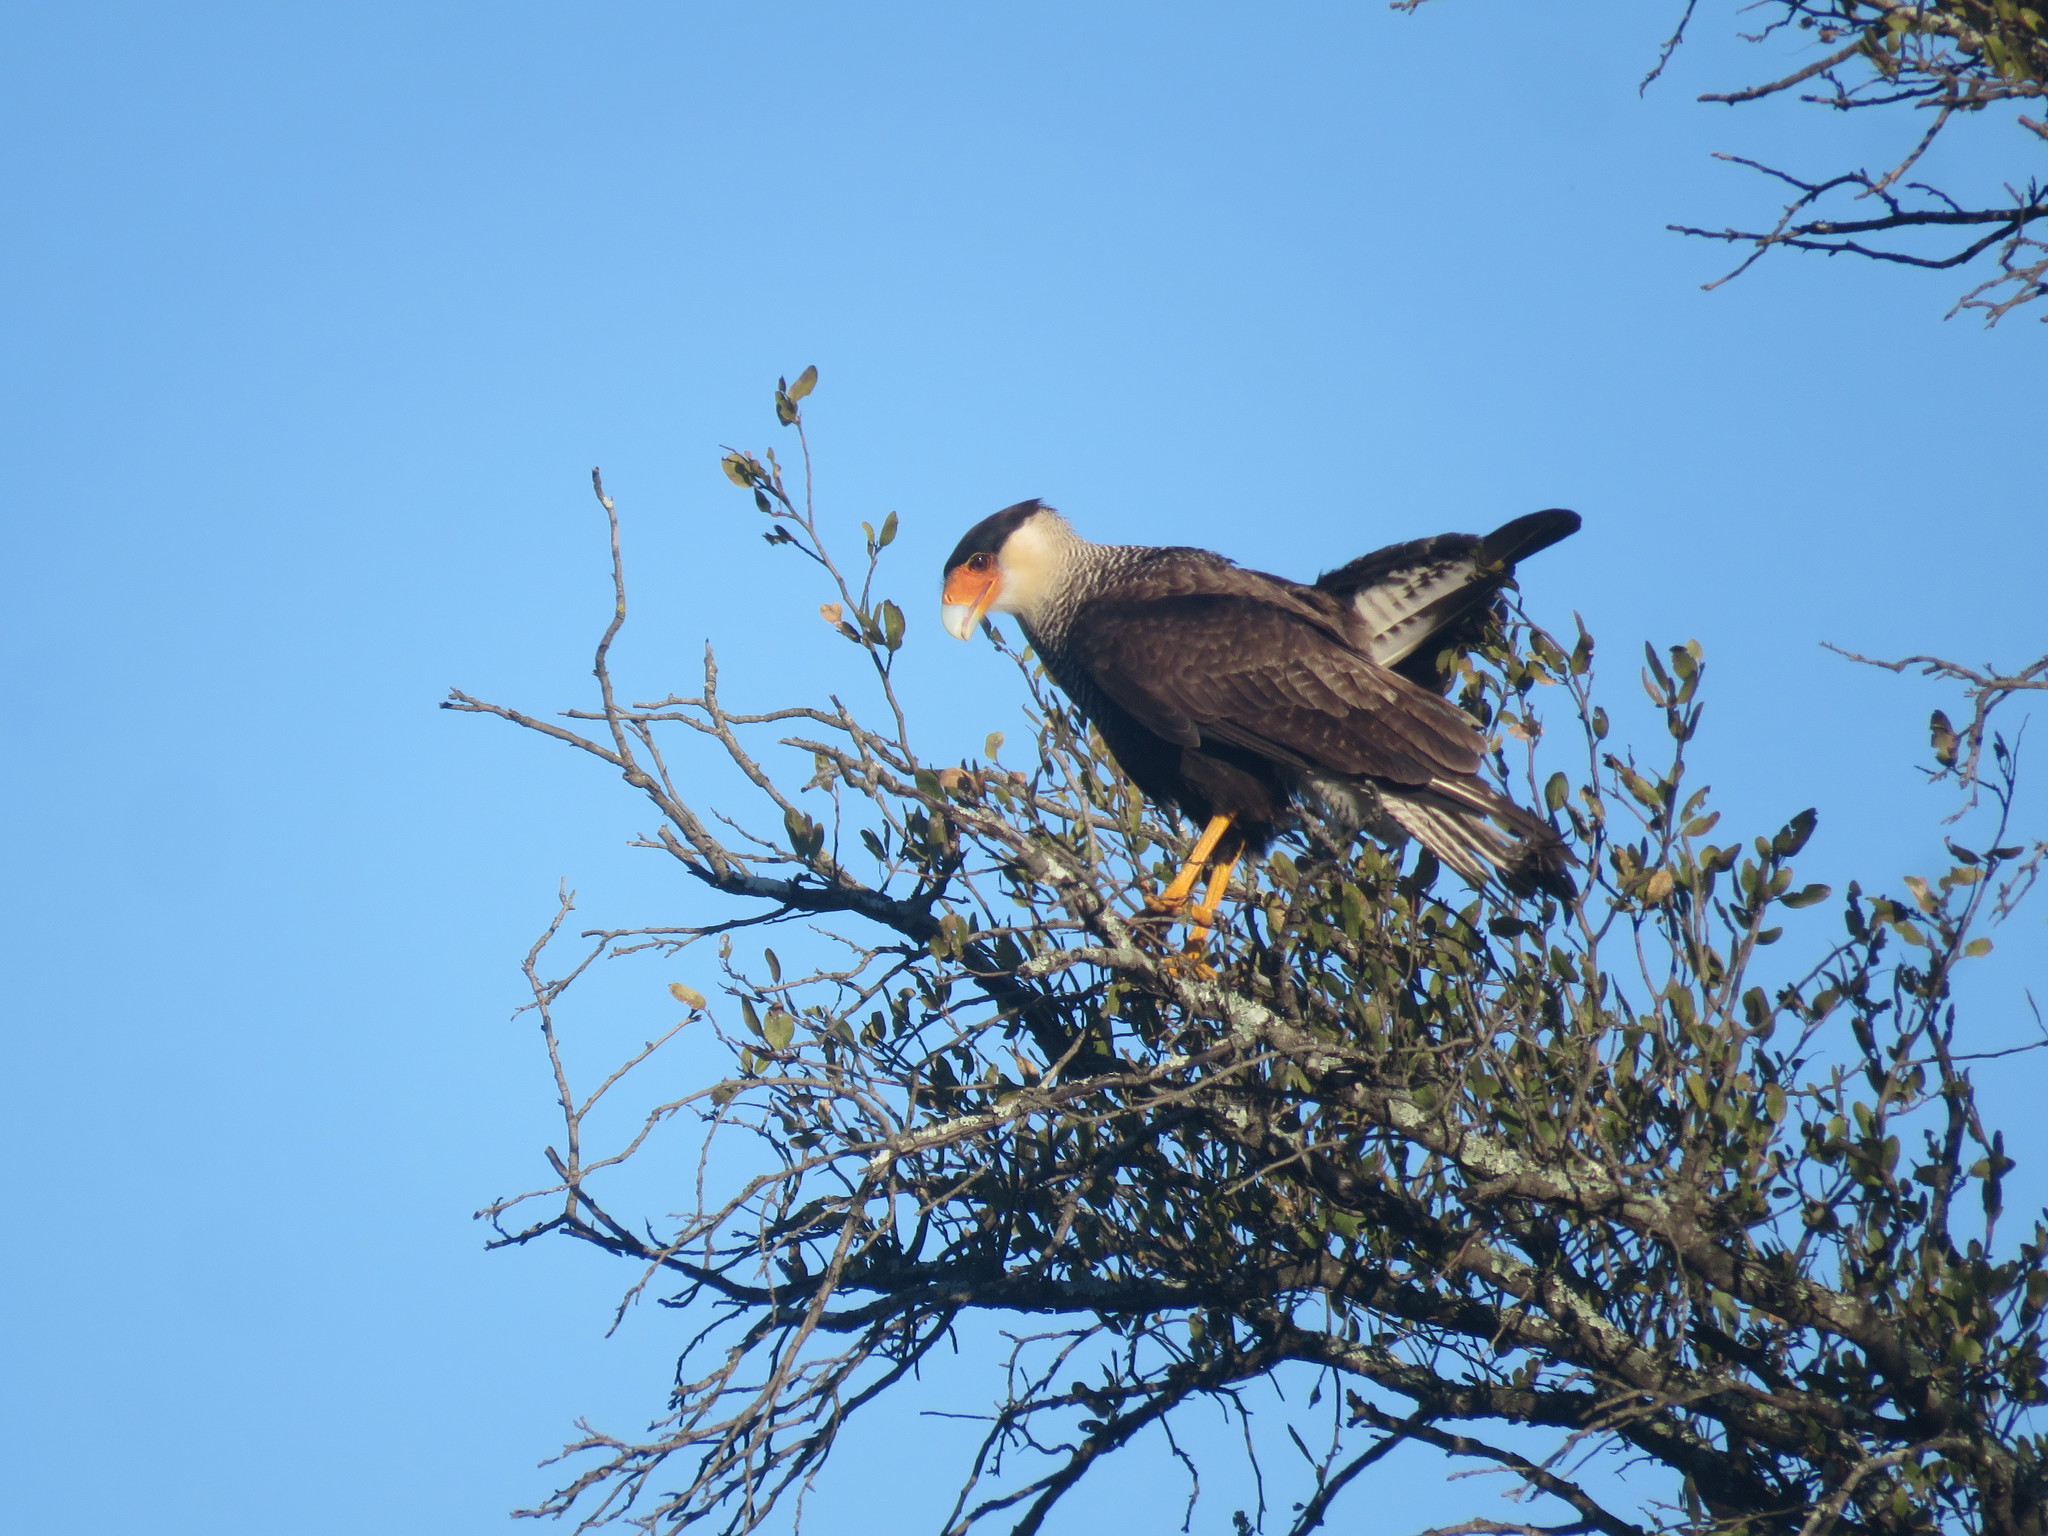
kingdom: Animalia
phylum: Chordata
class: Aves
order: Falconiformes
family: Falconidae
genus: Caracara
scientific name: Caracara plancus
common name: Southern caracara
